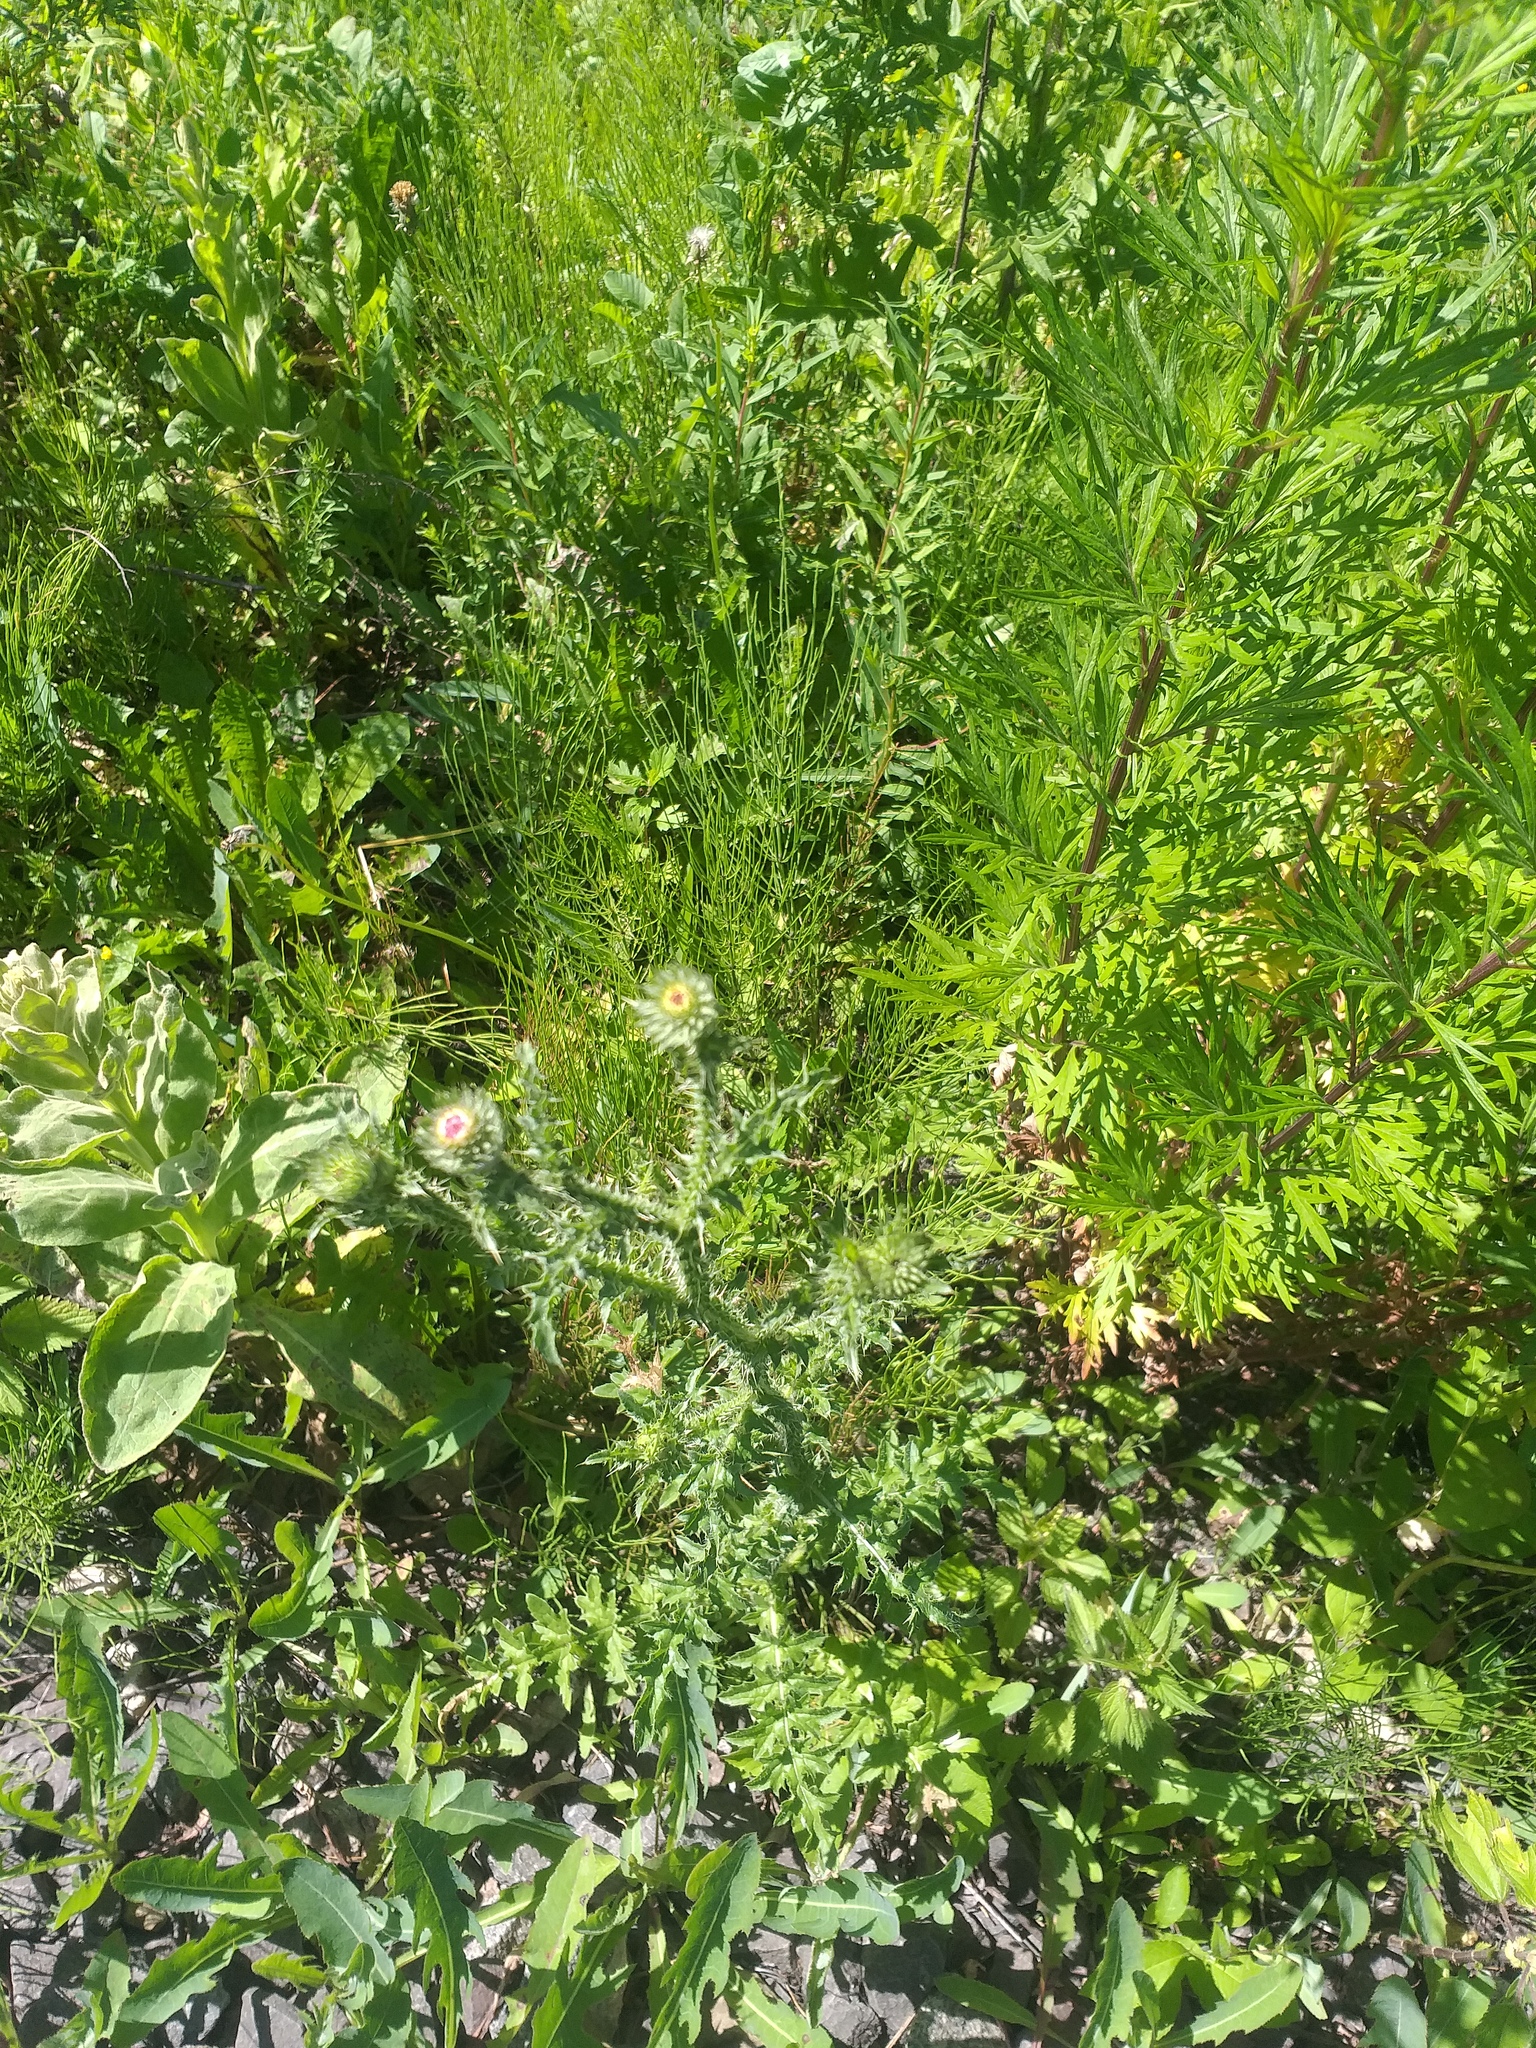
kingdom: Plantae
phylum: Tracheophyta
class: Magnoliopsida
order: Asterales
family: Asteraceae
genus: Carduus
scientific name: Carduus acanthoides
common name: Plumeless thistle
